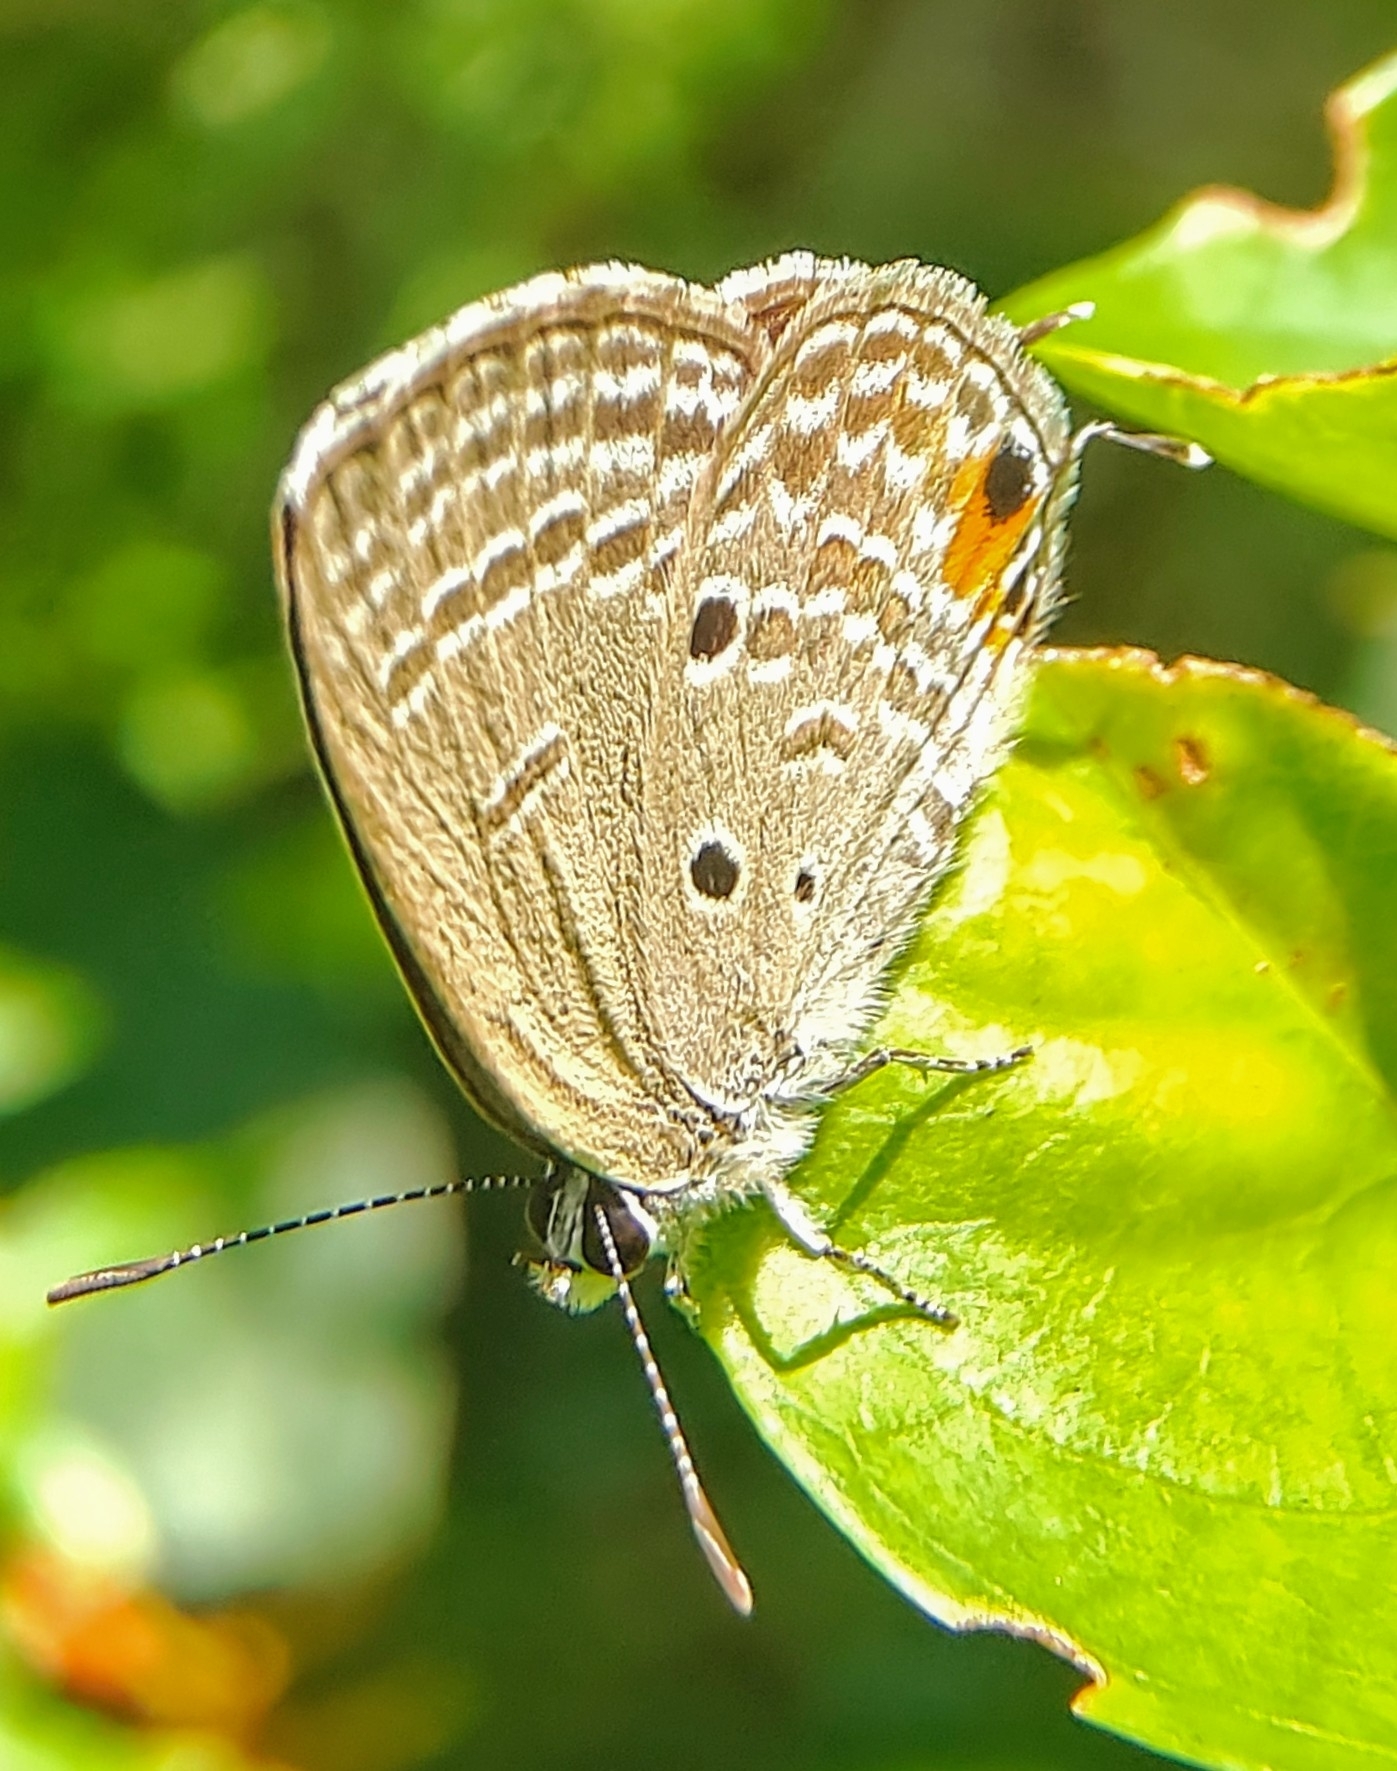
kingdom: Animalia
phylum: Arthropoda
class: Insecta
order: Lepidoptera
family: Lycaenidae
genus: Luthrodes
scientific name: Luthrodes pandava
